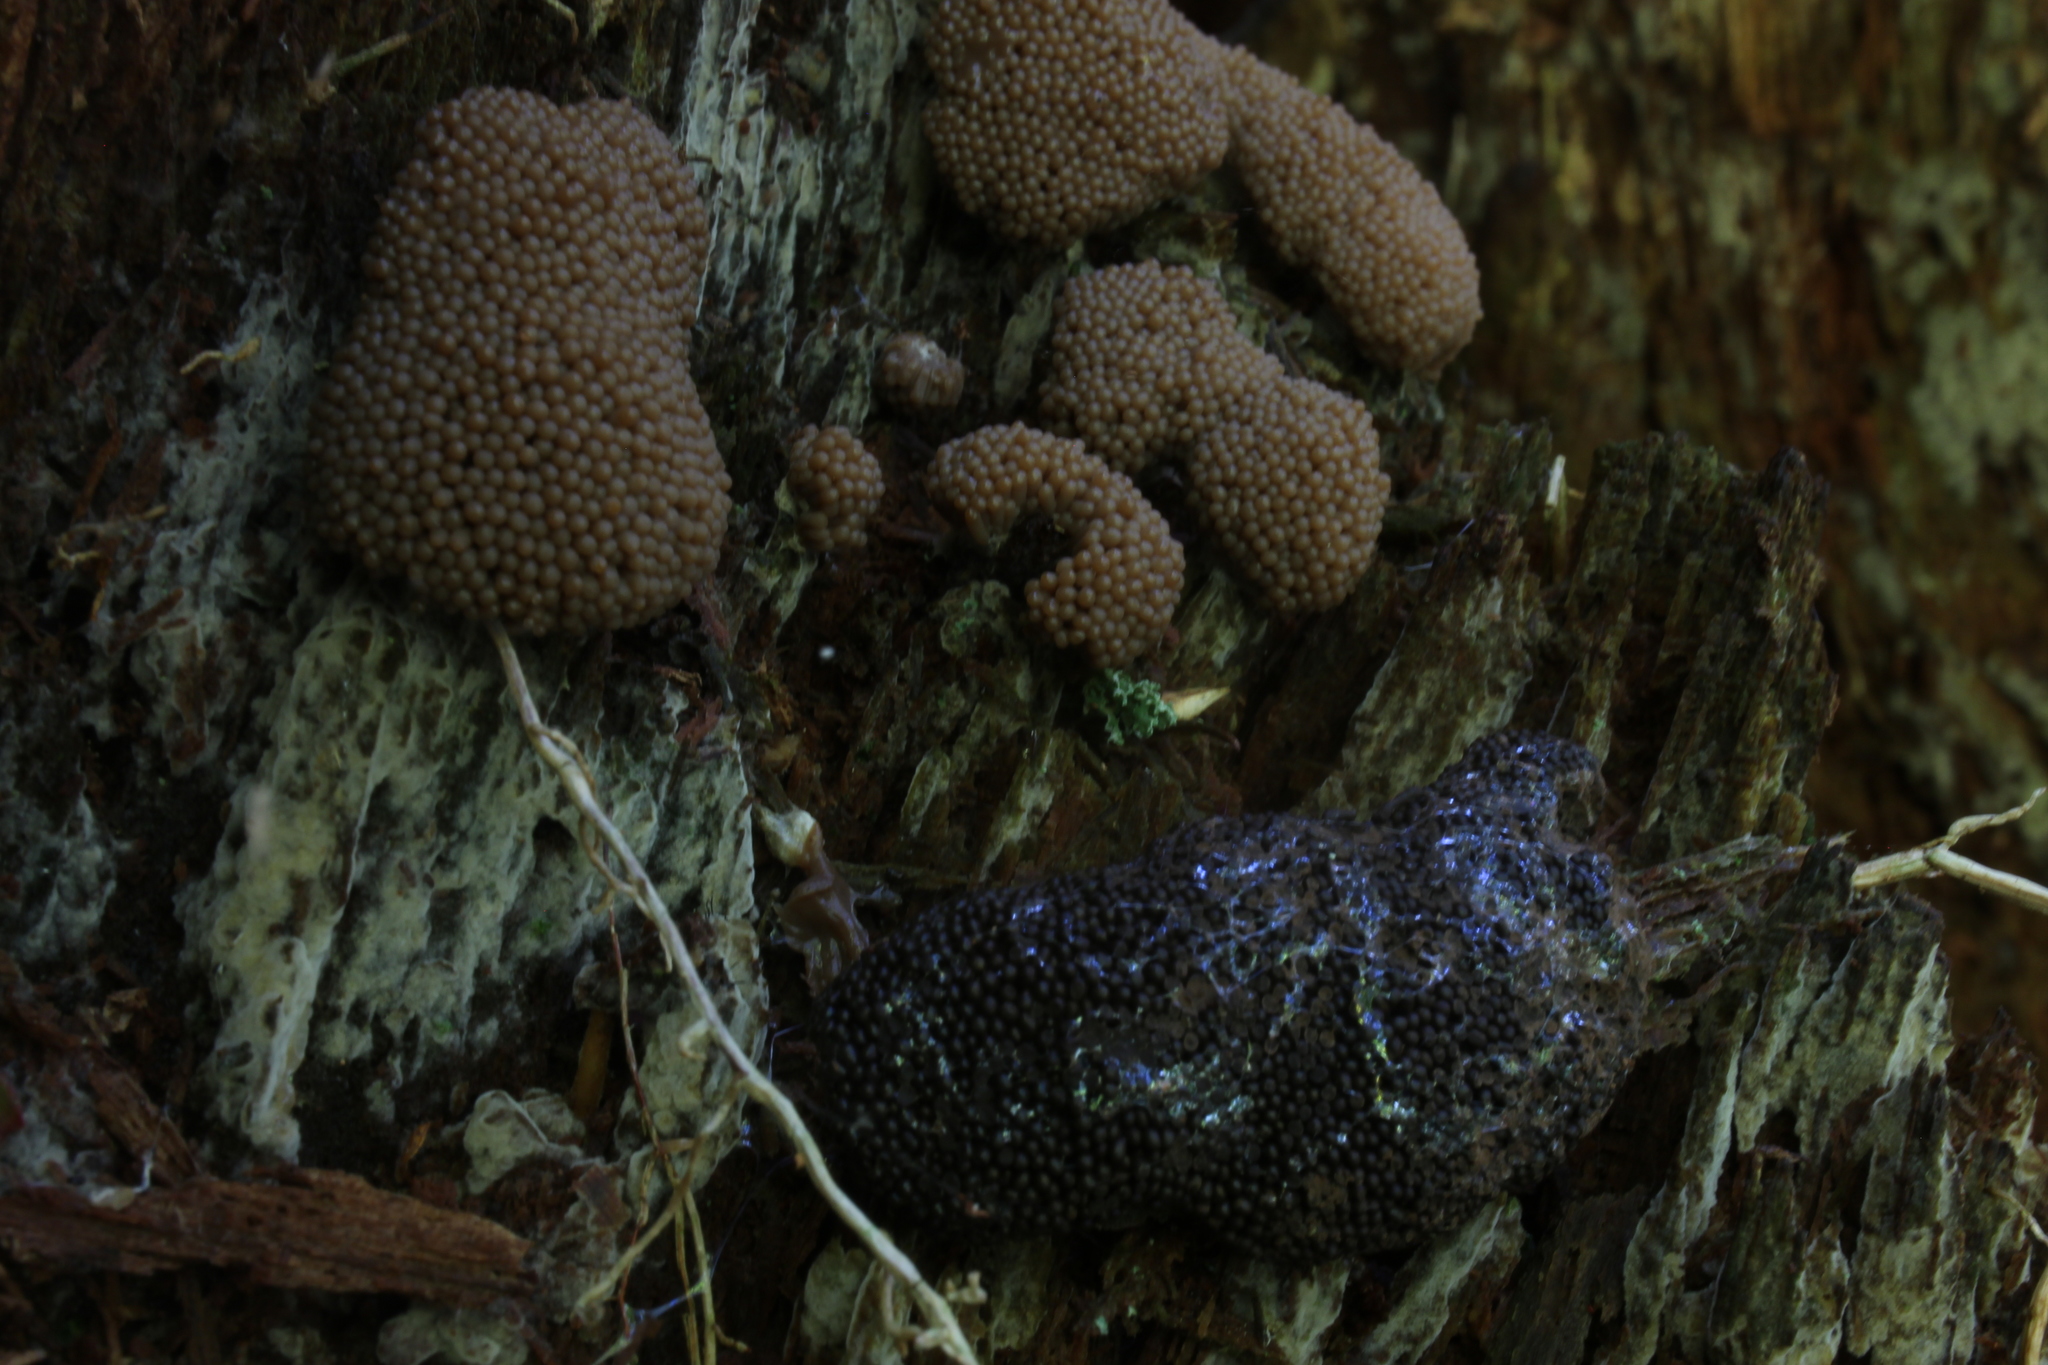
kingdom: Protozoa
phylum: Mycetozoa
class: Myxomycetes
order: Cribrariales
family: Tubiferaceae
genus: Tubifera
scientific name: Tubifera ferruginosa
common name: Red raspberry slime mold
